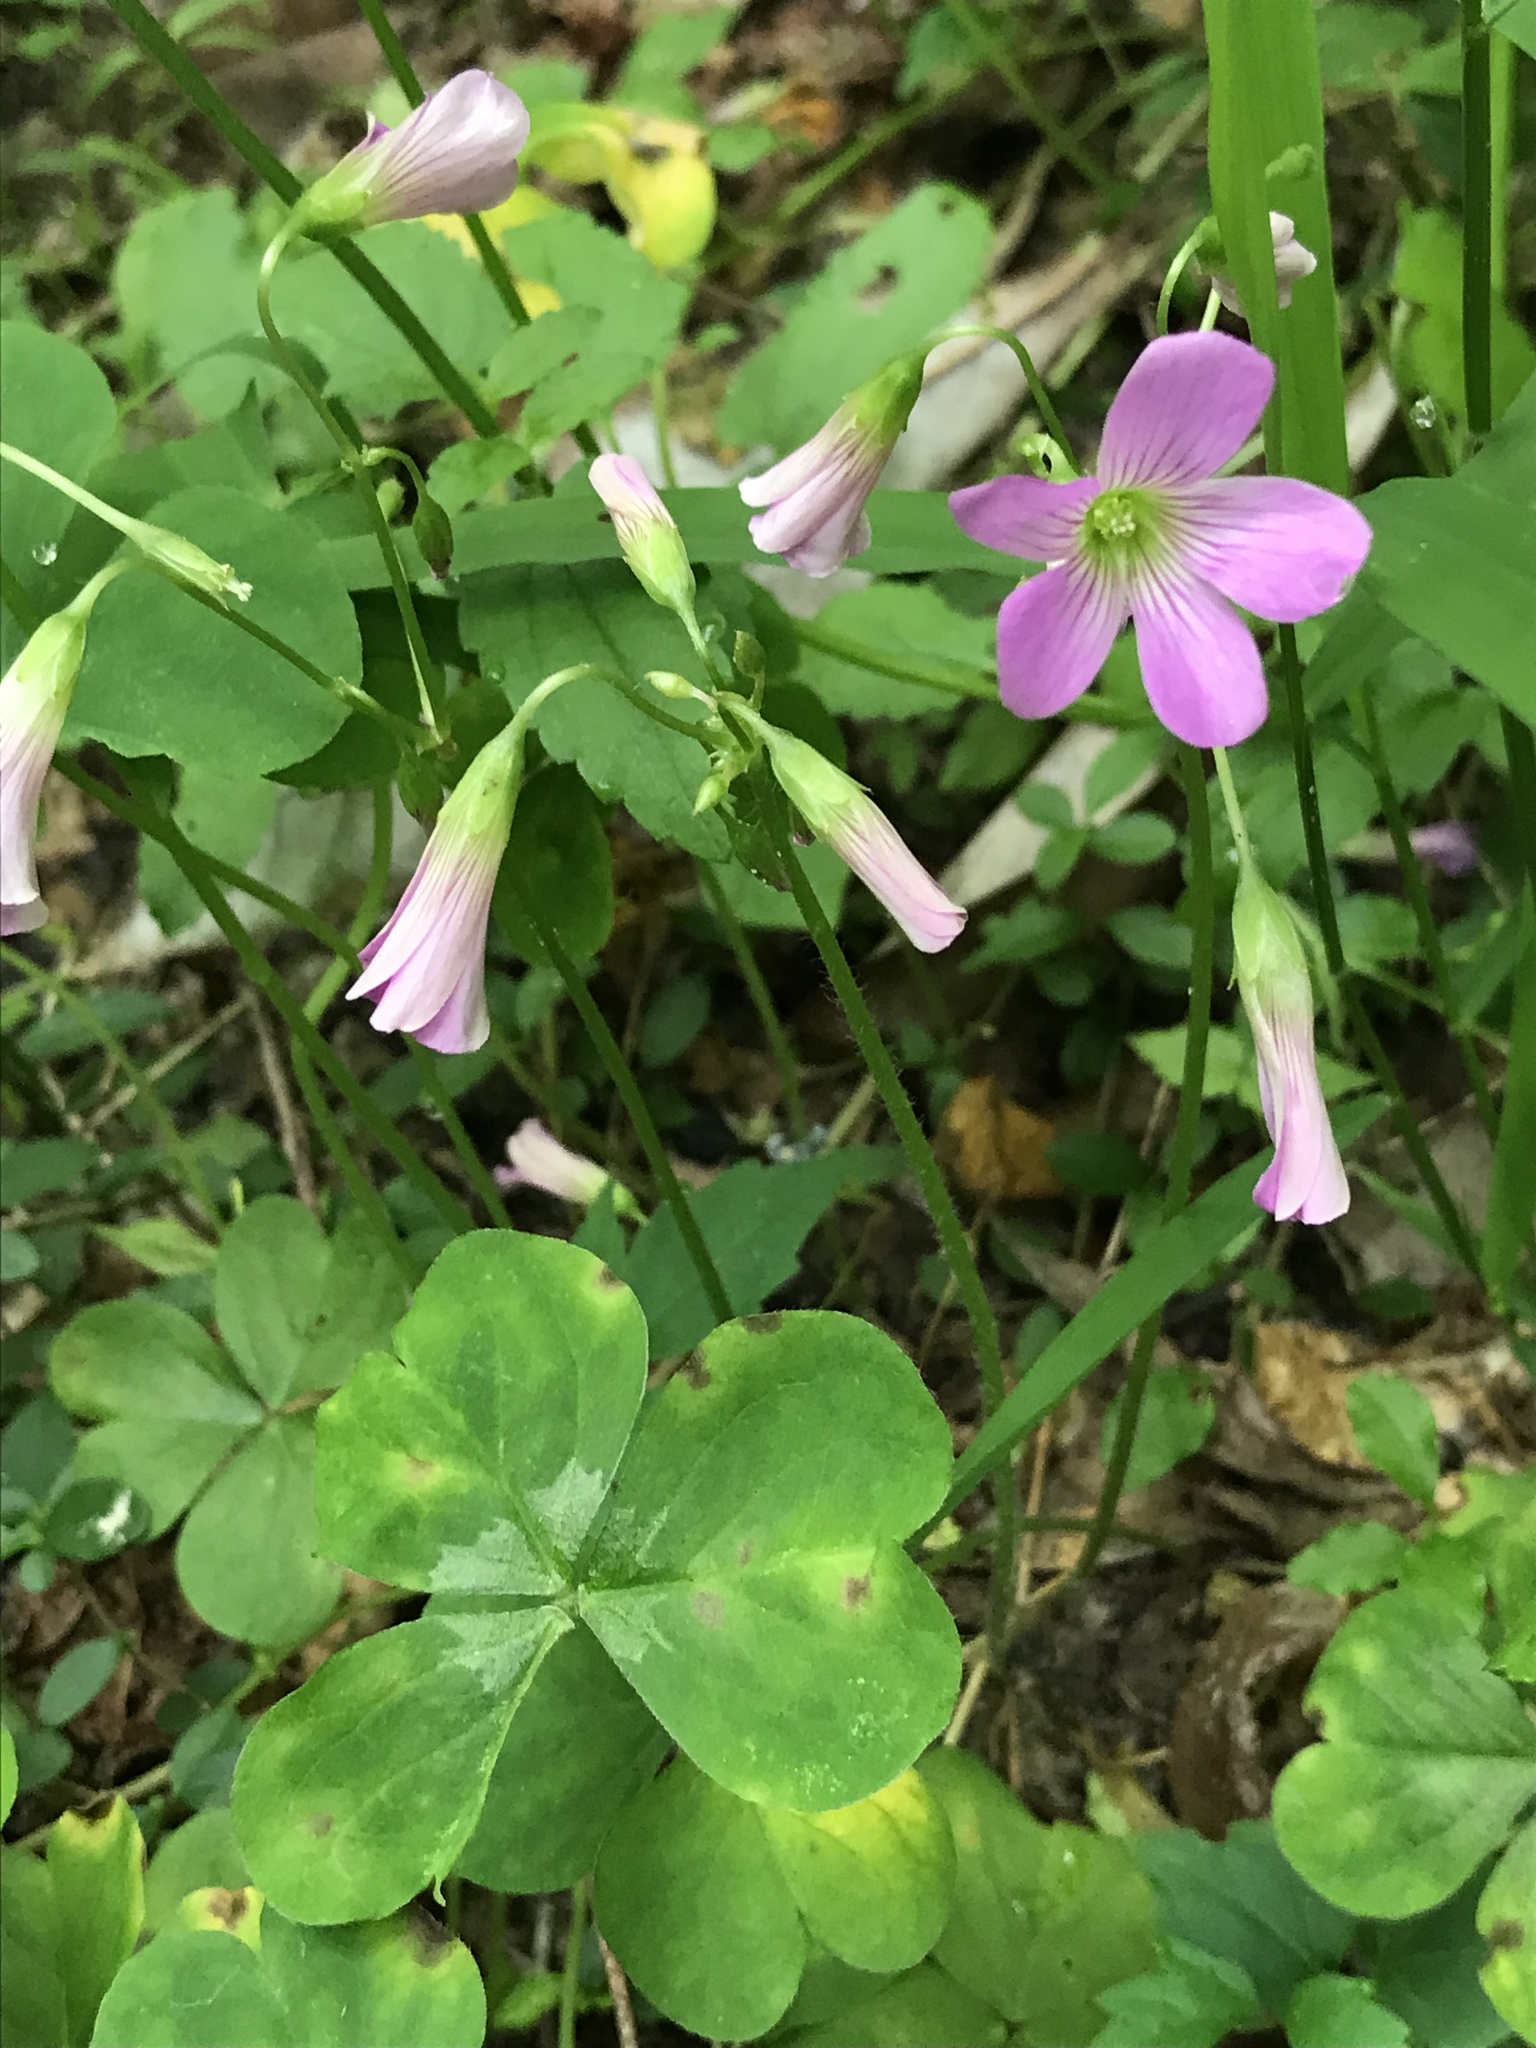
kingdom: Plantae
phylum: Tracheophyta
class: Magnoliopsida
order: Oxalidales
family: Oxalidaceae
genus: Oxalis
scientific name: Oxalis debilis
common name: Large-flowered pink-sorrel
